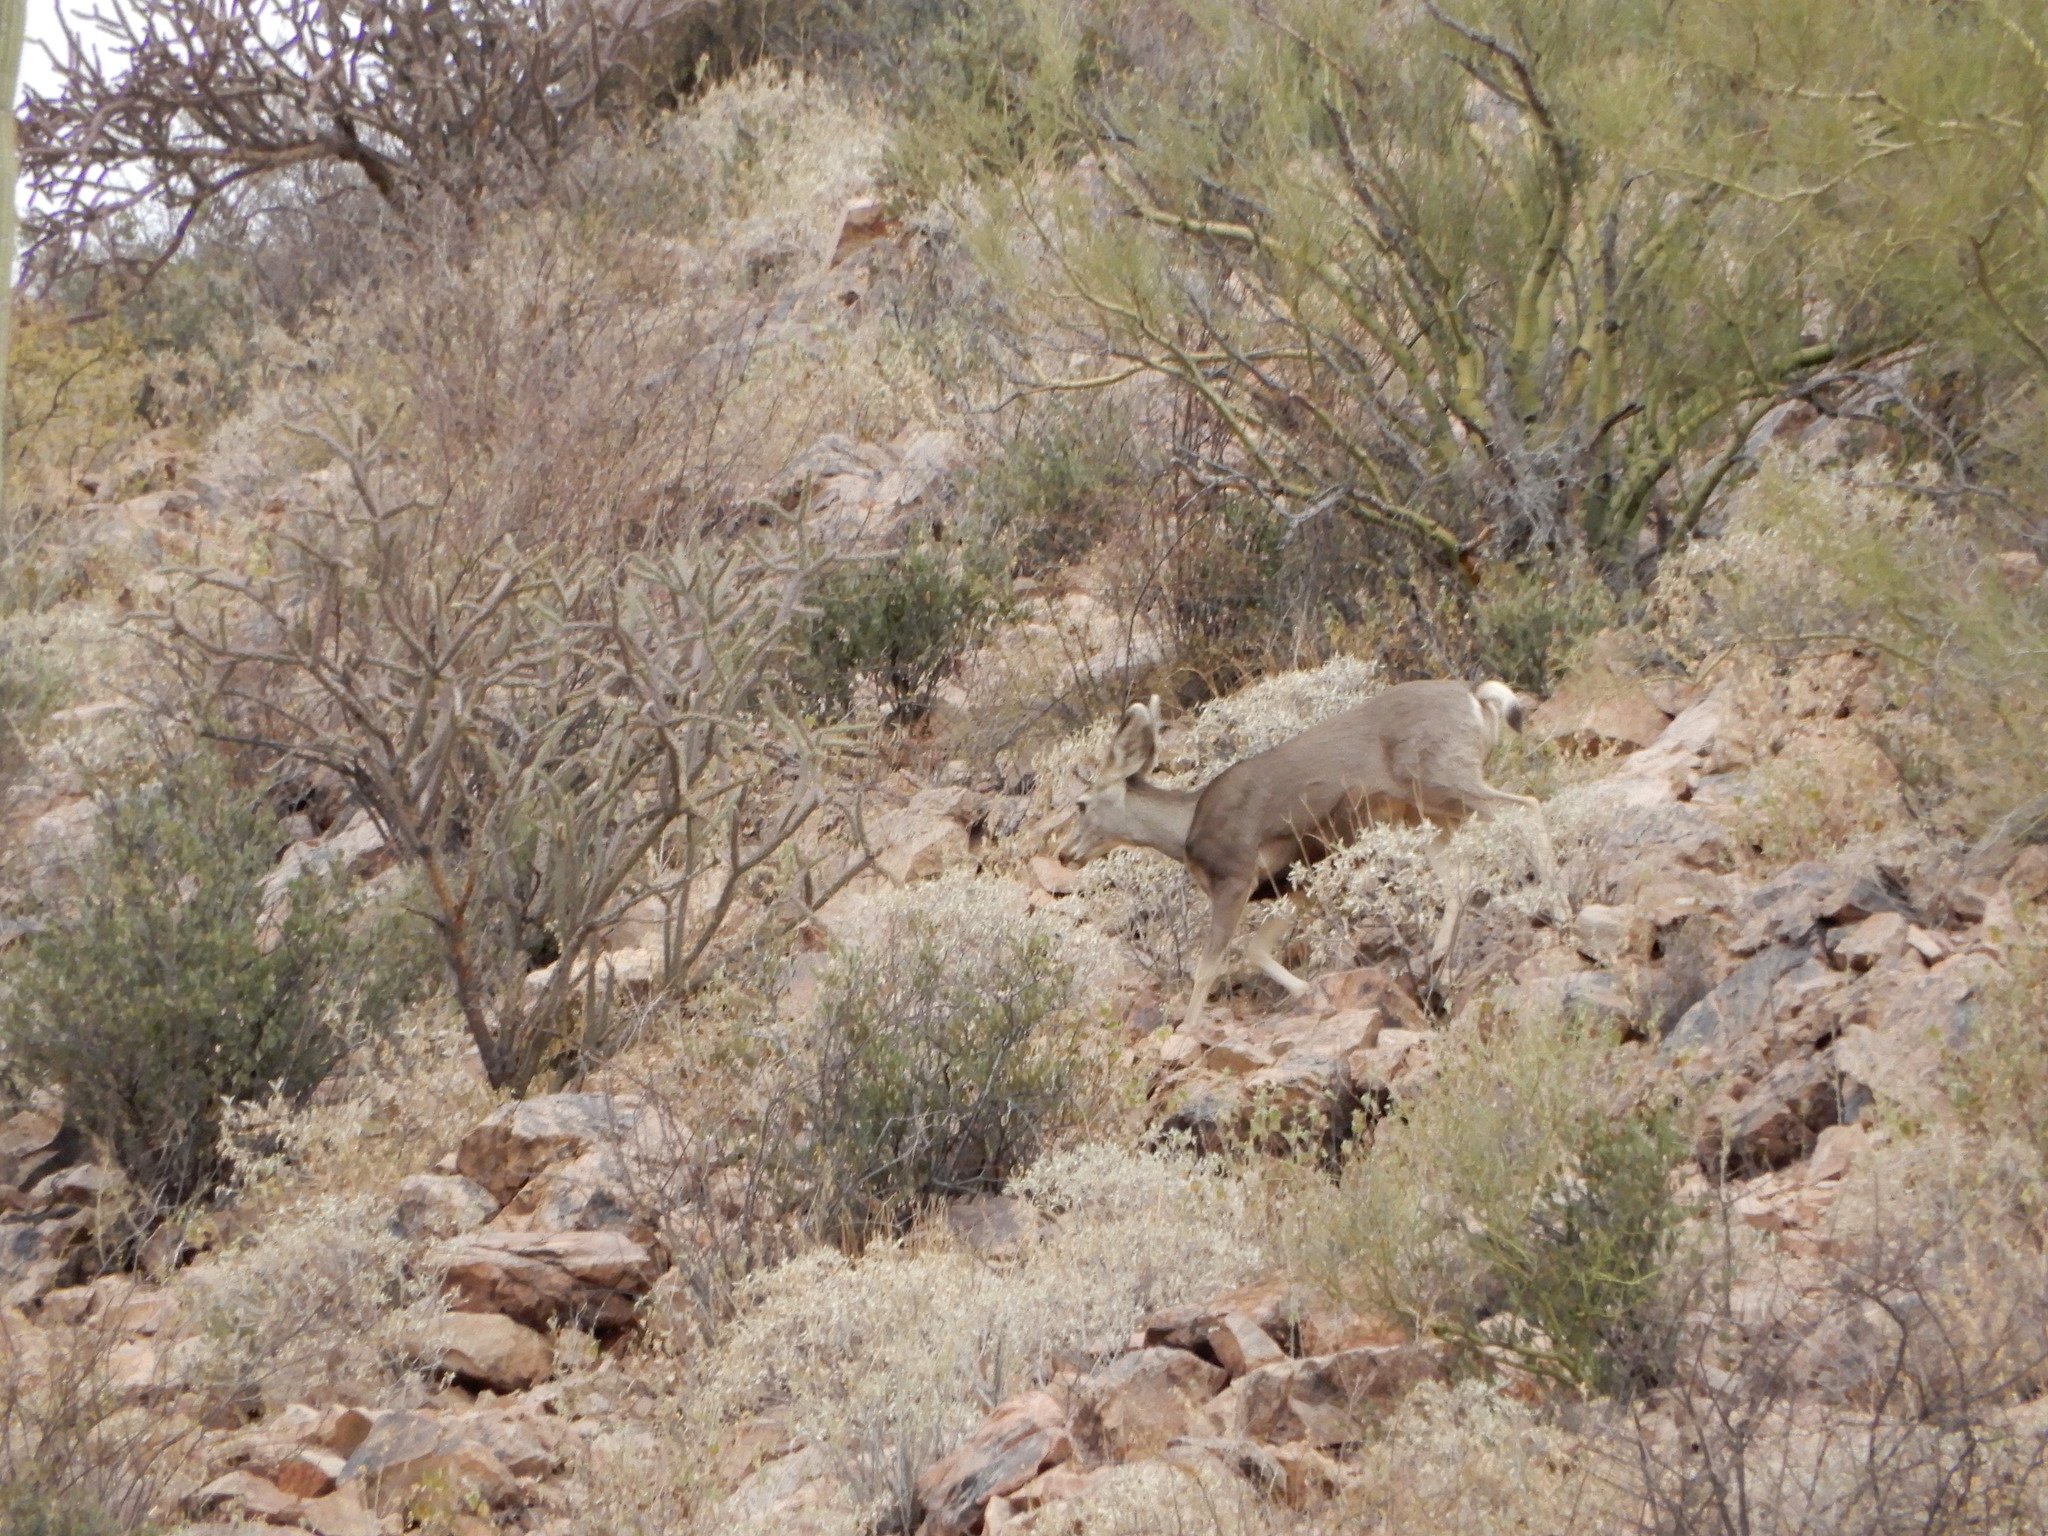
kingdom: Animalia
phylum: Chordata
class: Mammalia
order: Artiodactyla
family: Cervidae
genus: Odocoileus
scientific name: Odocoileus hemionus
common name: Mule deer
